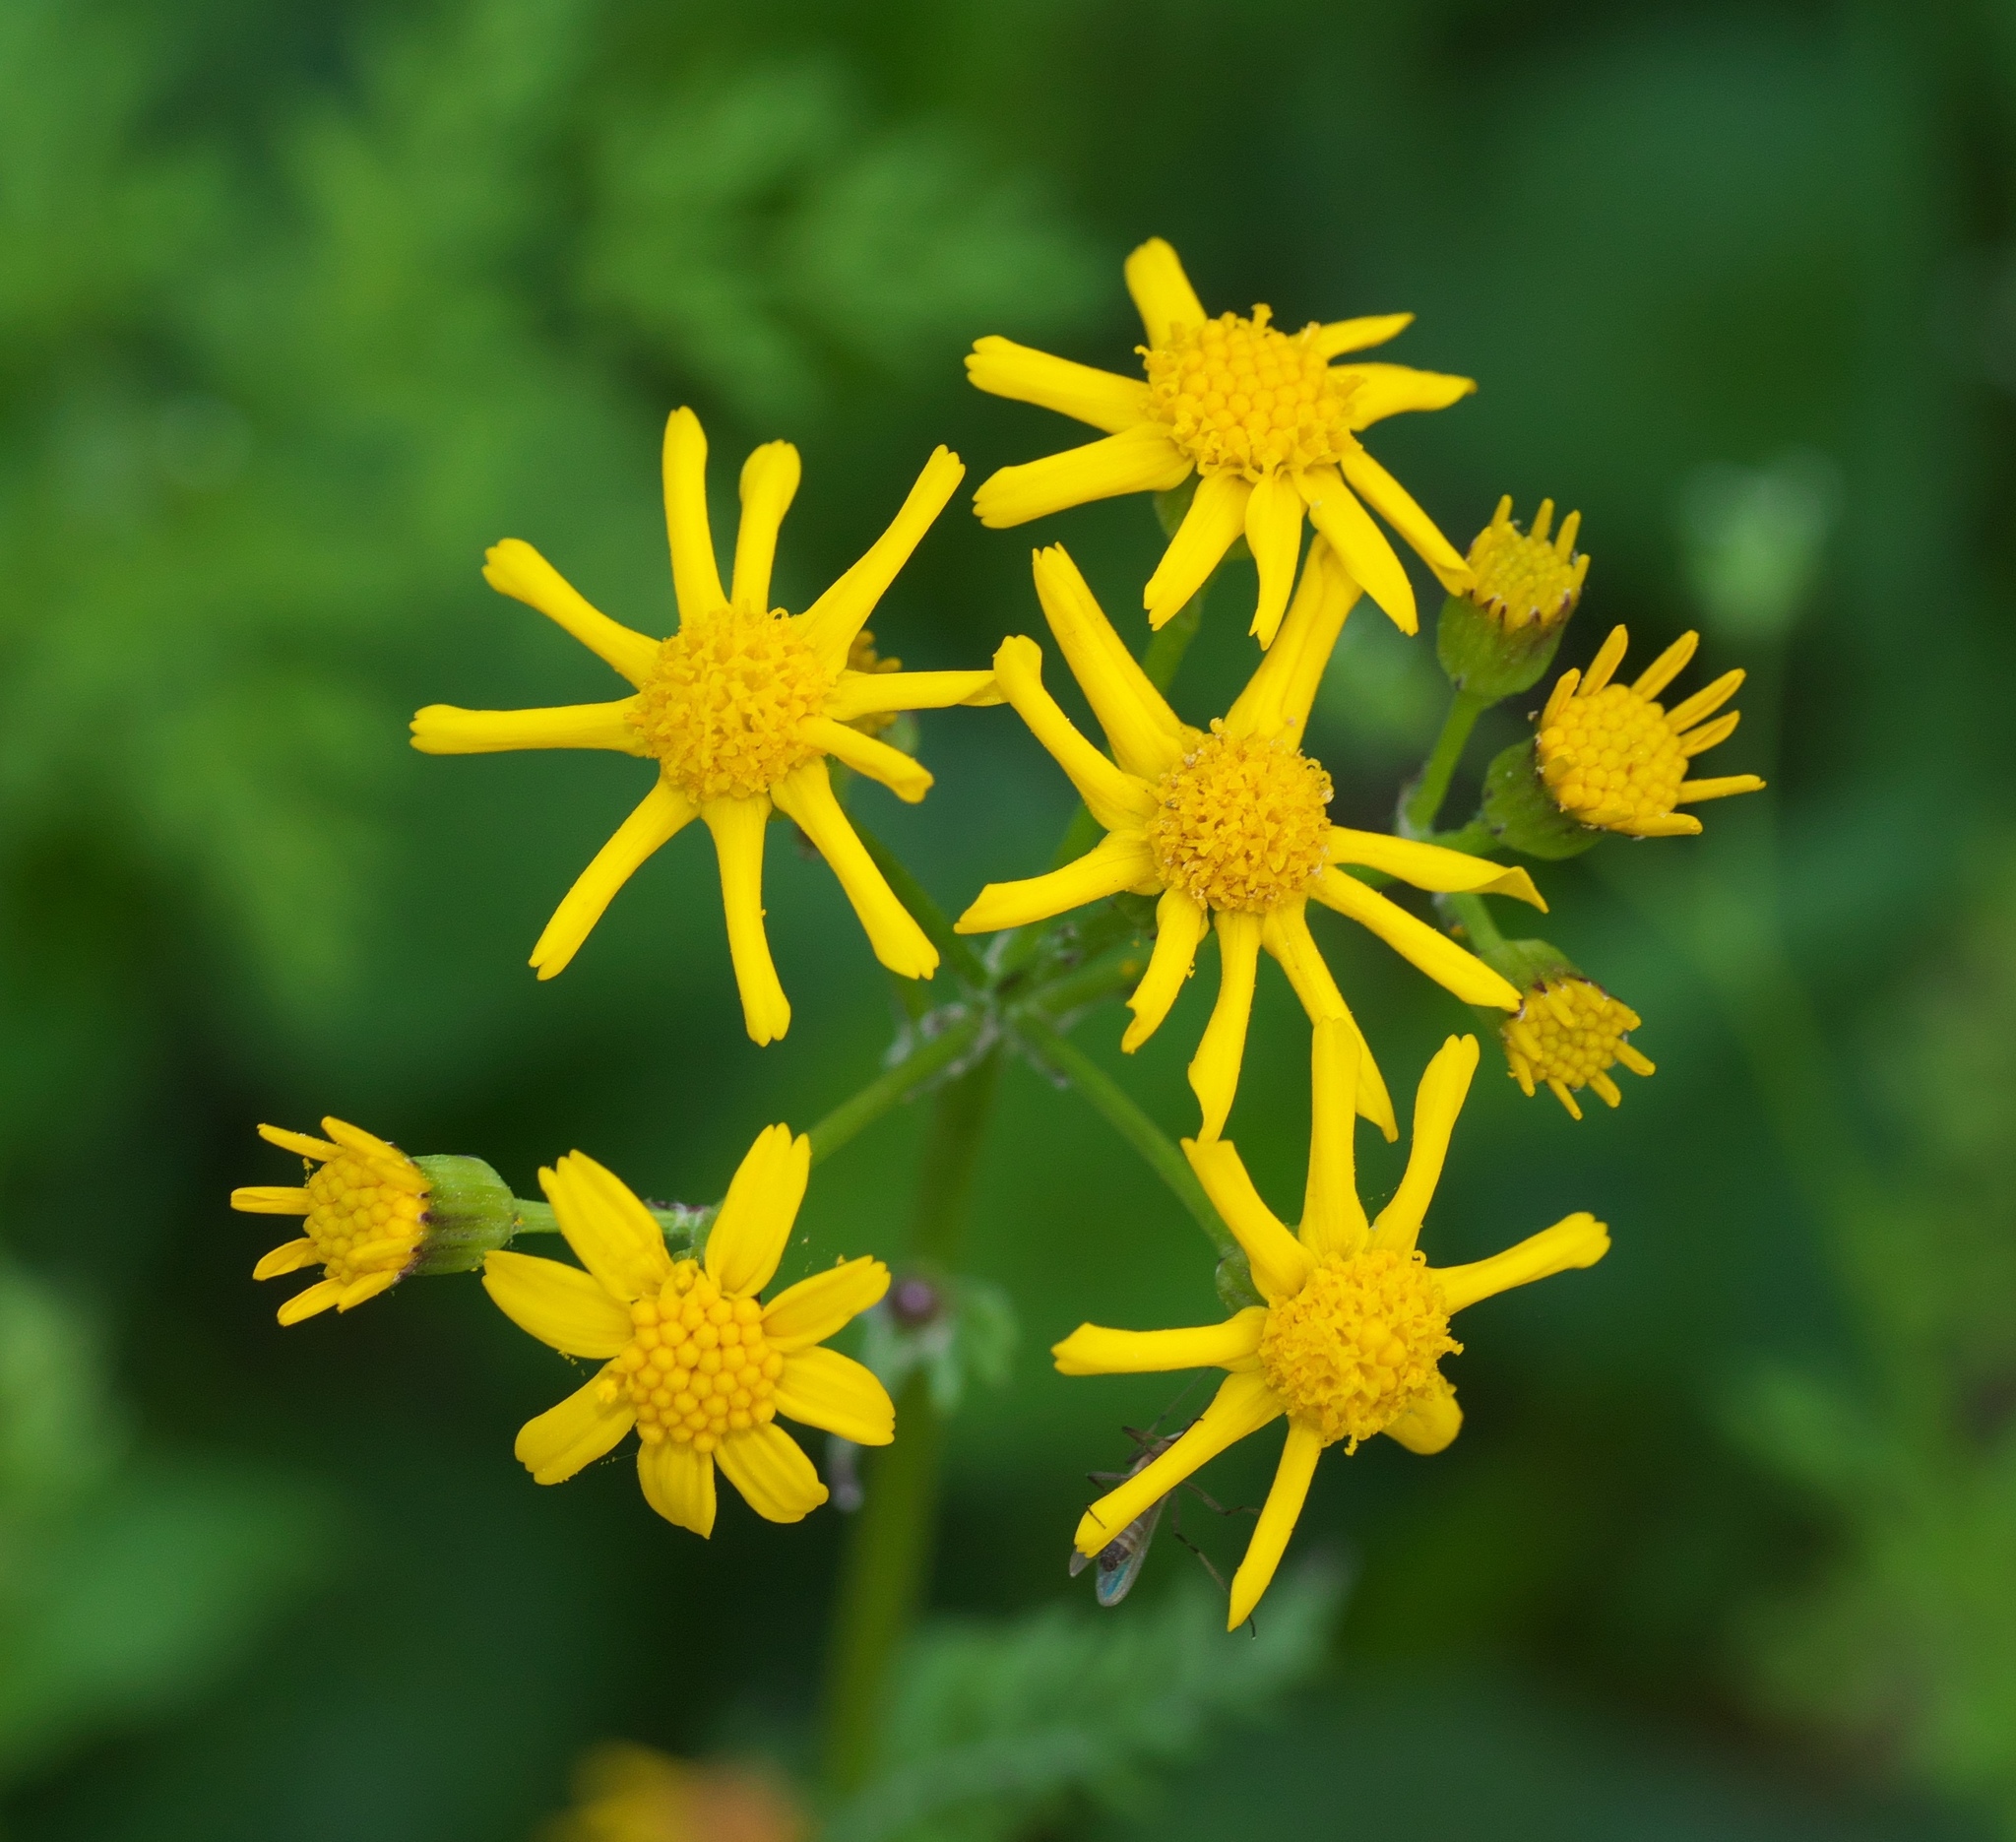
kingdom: Plantae
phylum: Tracheophyta
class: Magnoliopsida
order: Asterales
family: Asteraceae
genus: Packera
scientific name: Packera obovata
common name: Round-leaf ragwort
